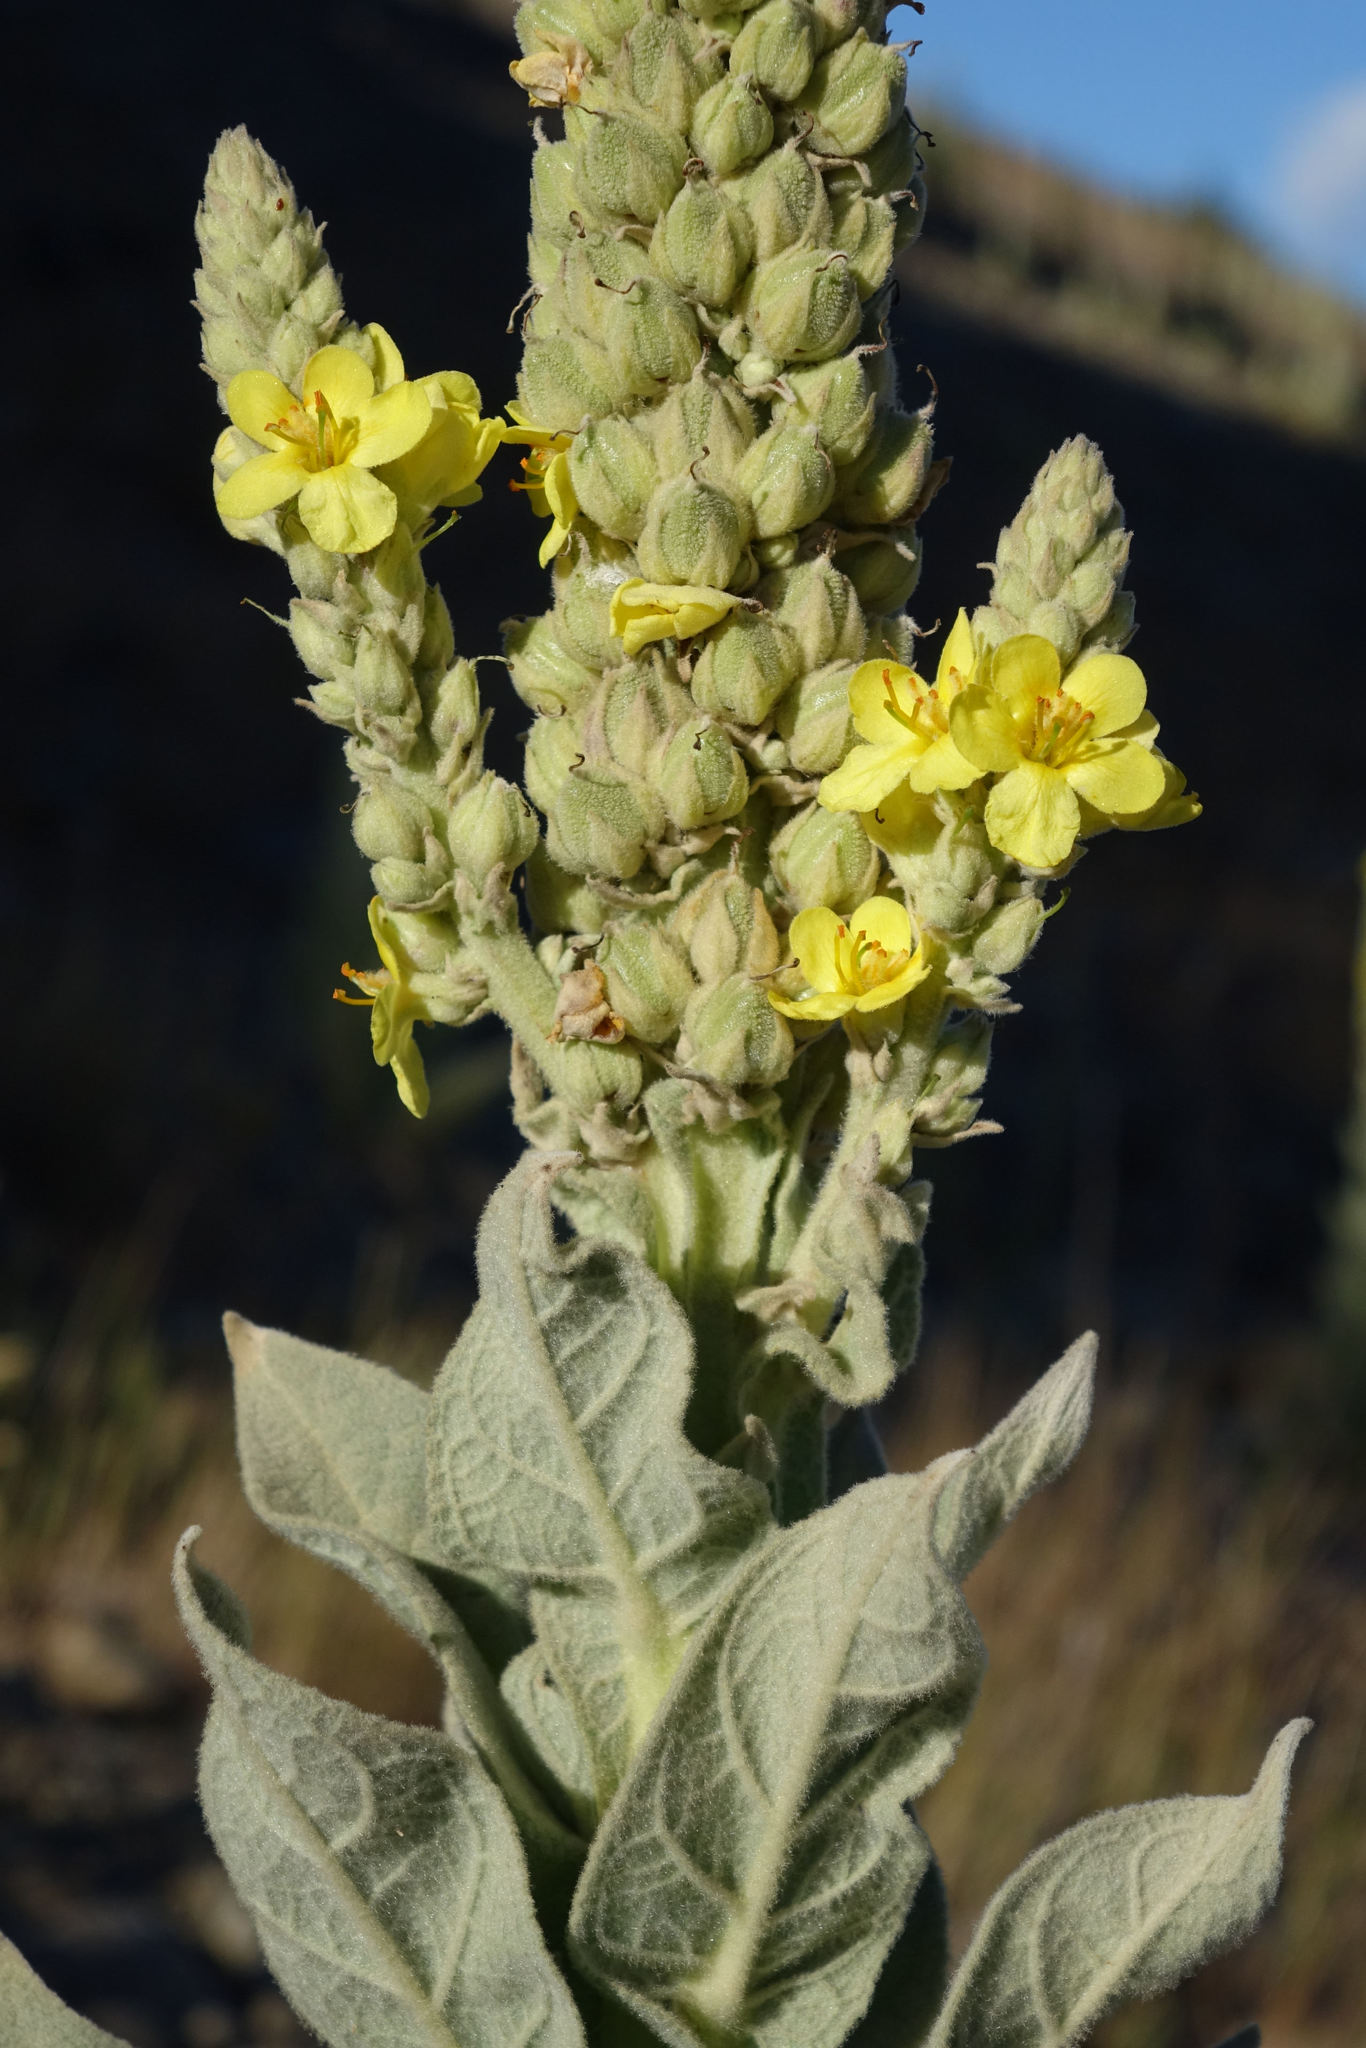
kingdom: Plantae
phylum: Tracheophyta
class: Magnoliopsida
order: Lamiales
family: Scrophulariaceae
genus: Verbascum
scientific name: Verbascum thapsus
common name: Common mullein
